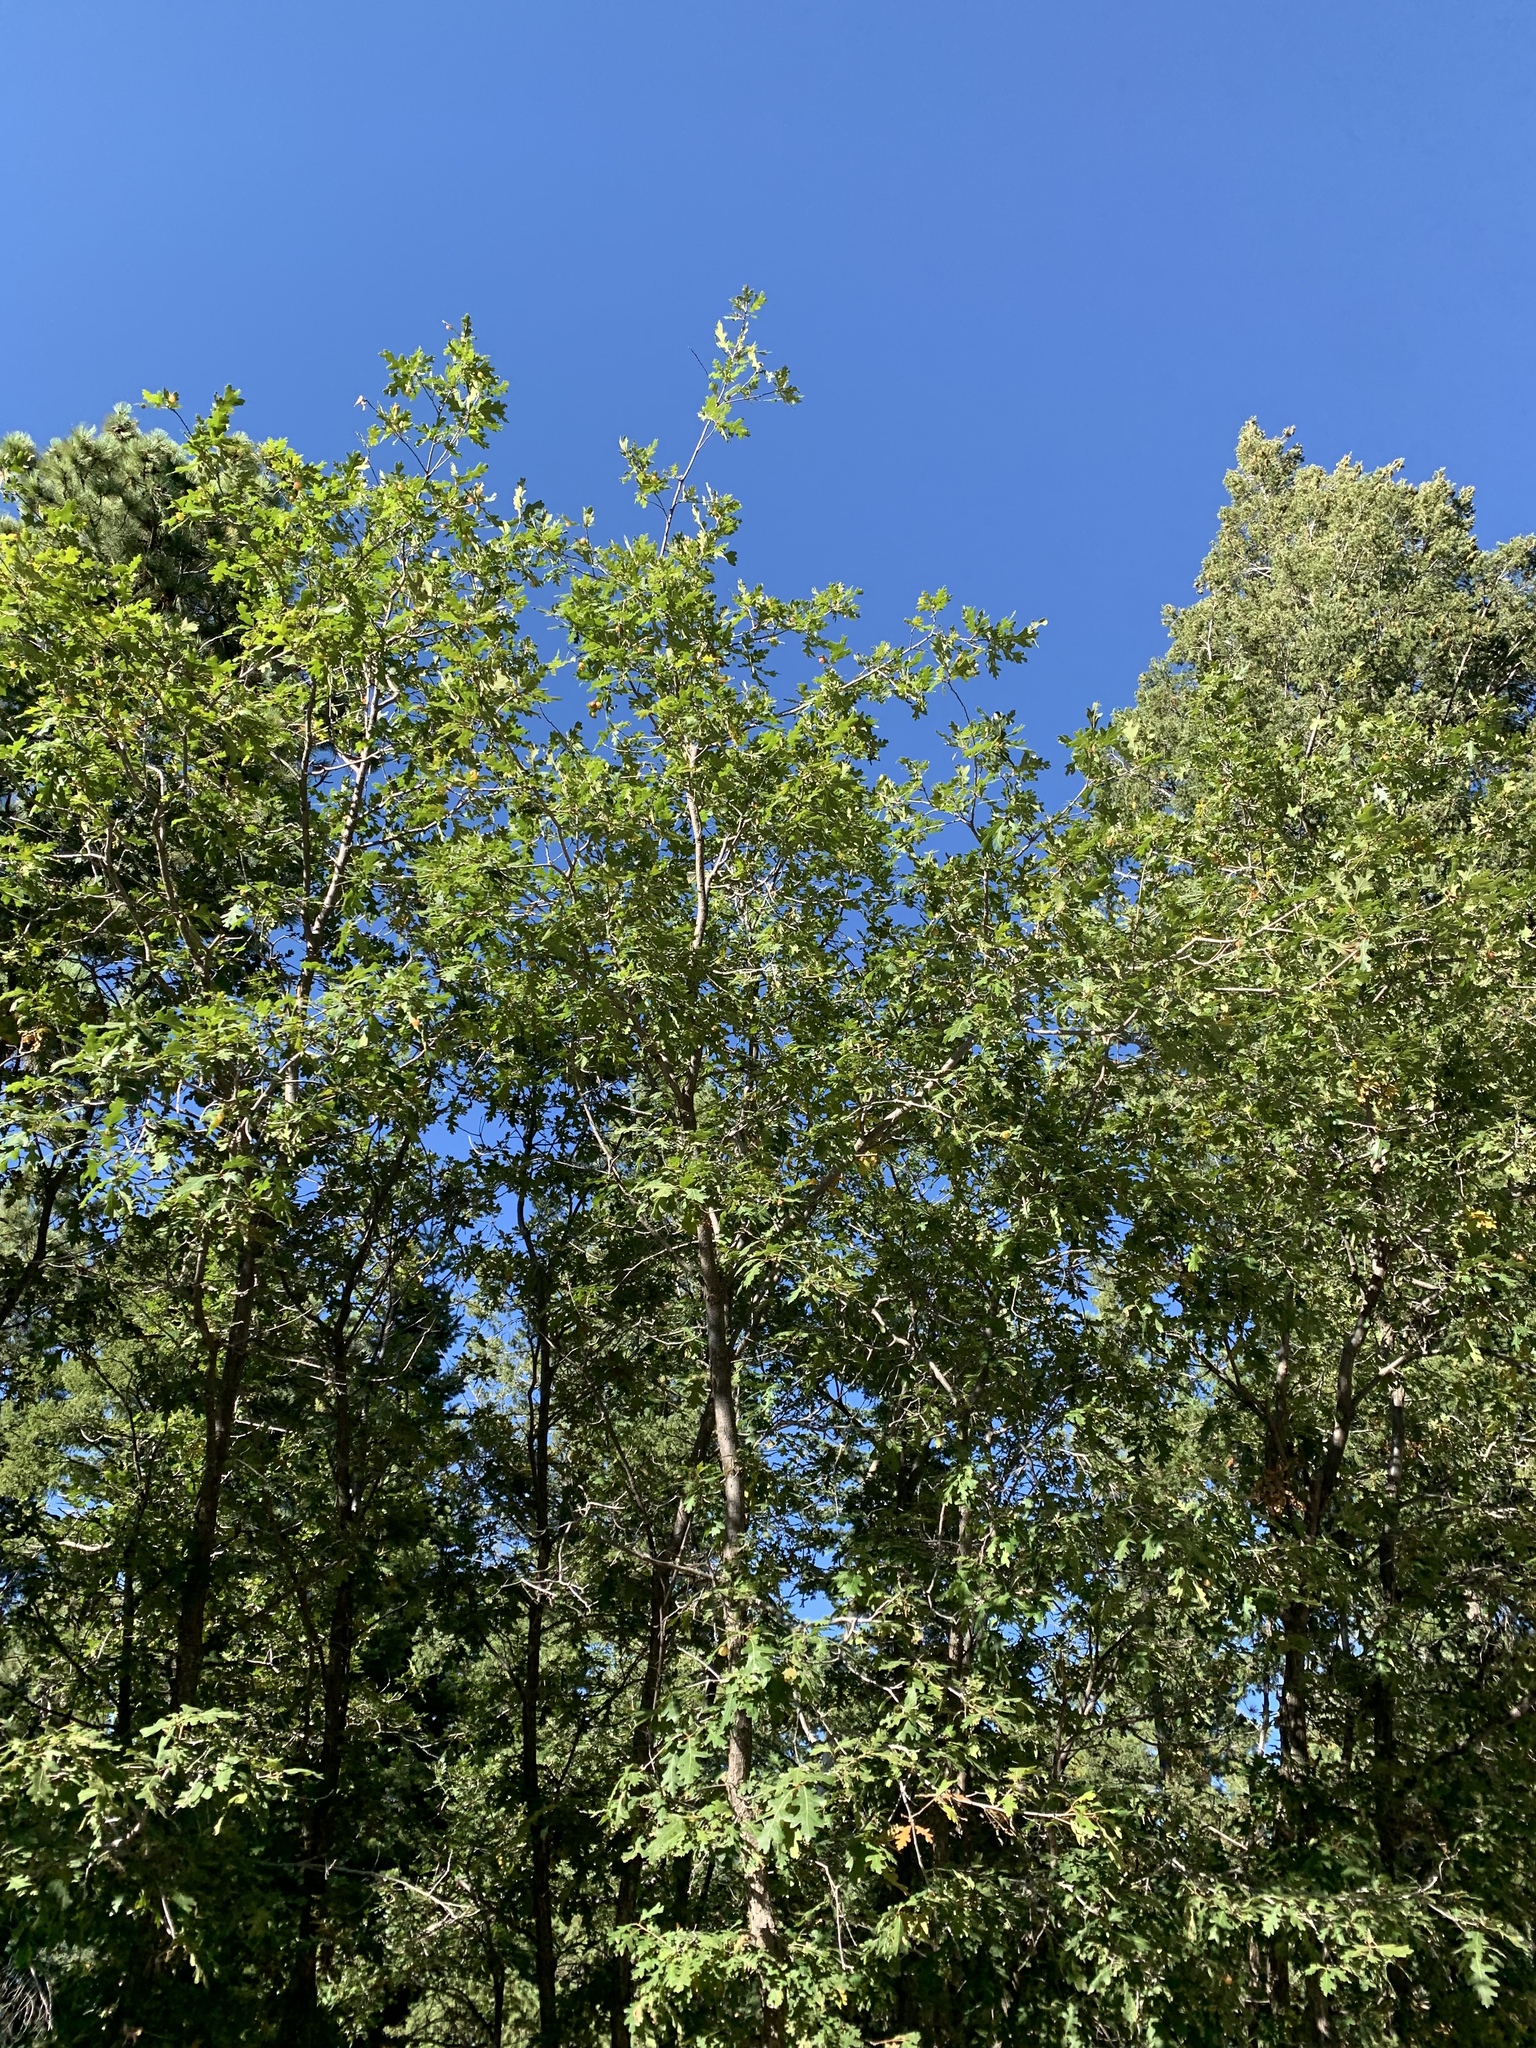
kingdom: Plantae
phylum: Tracheophyta
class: Magnoliopsida
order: Fagales
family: Fagaceae
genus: Quercus
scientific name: Quercus gambelii
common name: Gambel oak
